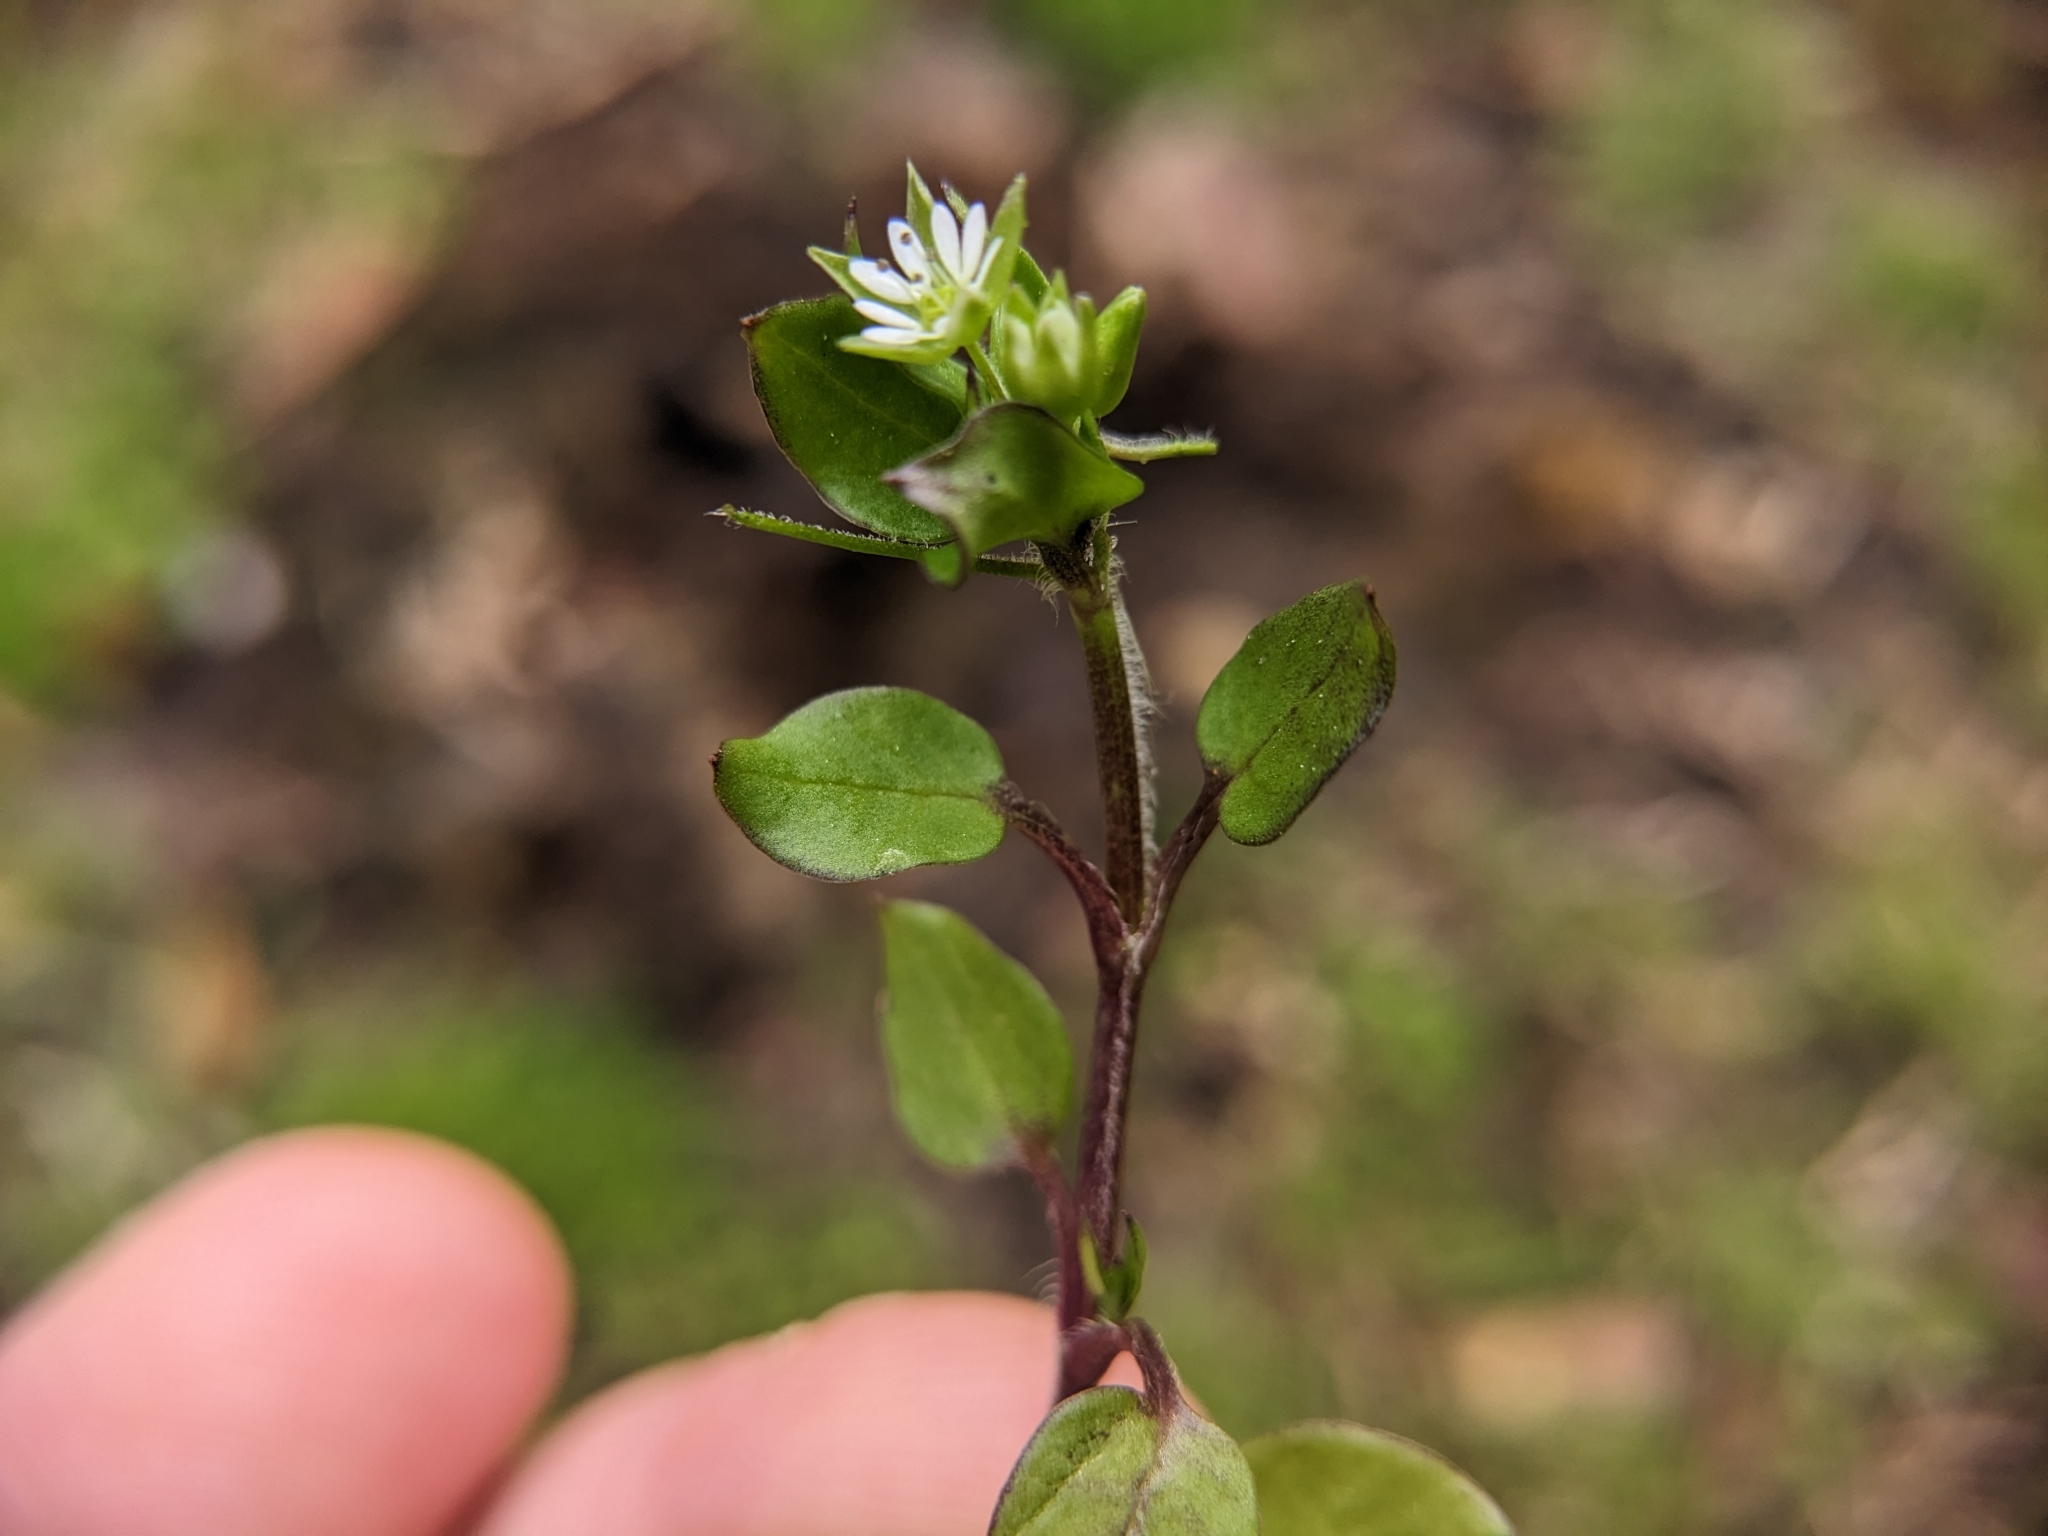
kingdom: Plantae
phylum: Tracheophyta
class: Magnoliopsida
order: Caryophyllales
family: Caryophyllaceae
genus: Stellaria
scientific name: Stellaria media
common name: Common chickweed
